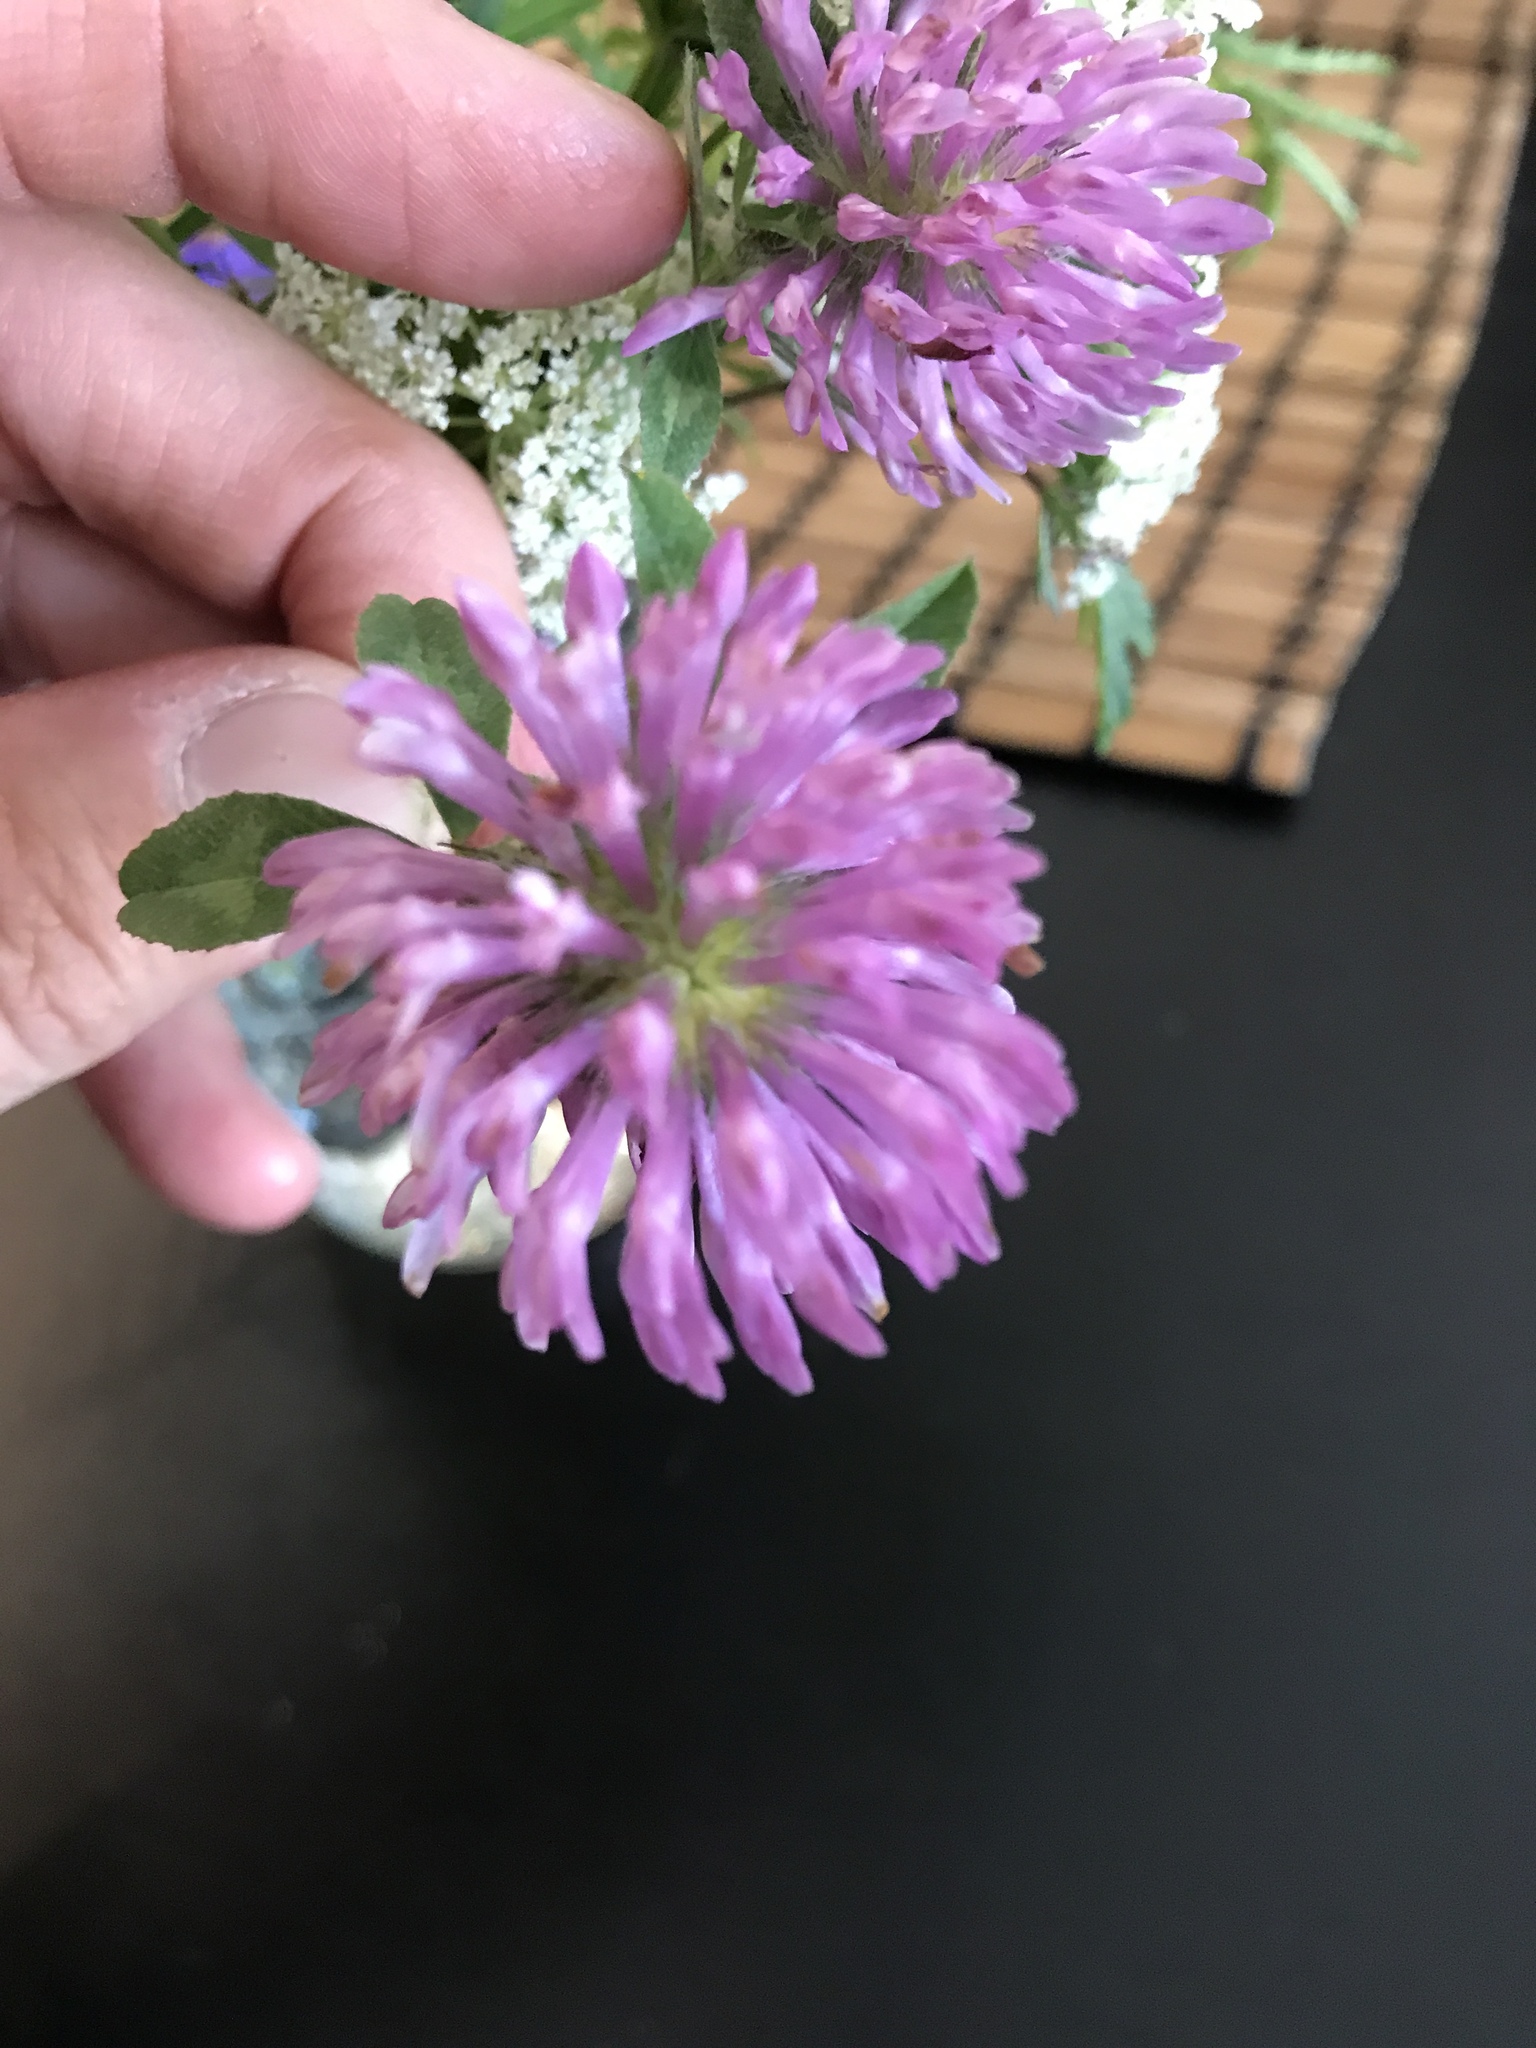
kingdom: Plantae
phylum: Tracheophyta
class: Magnoliopsida
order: Fabales
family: Fabaceae
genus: Trifolium
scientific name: Trifolium pratense
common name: Red clover
